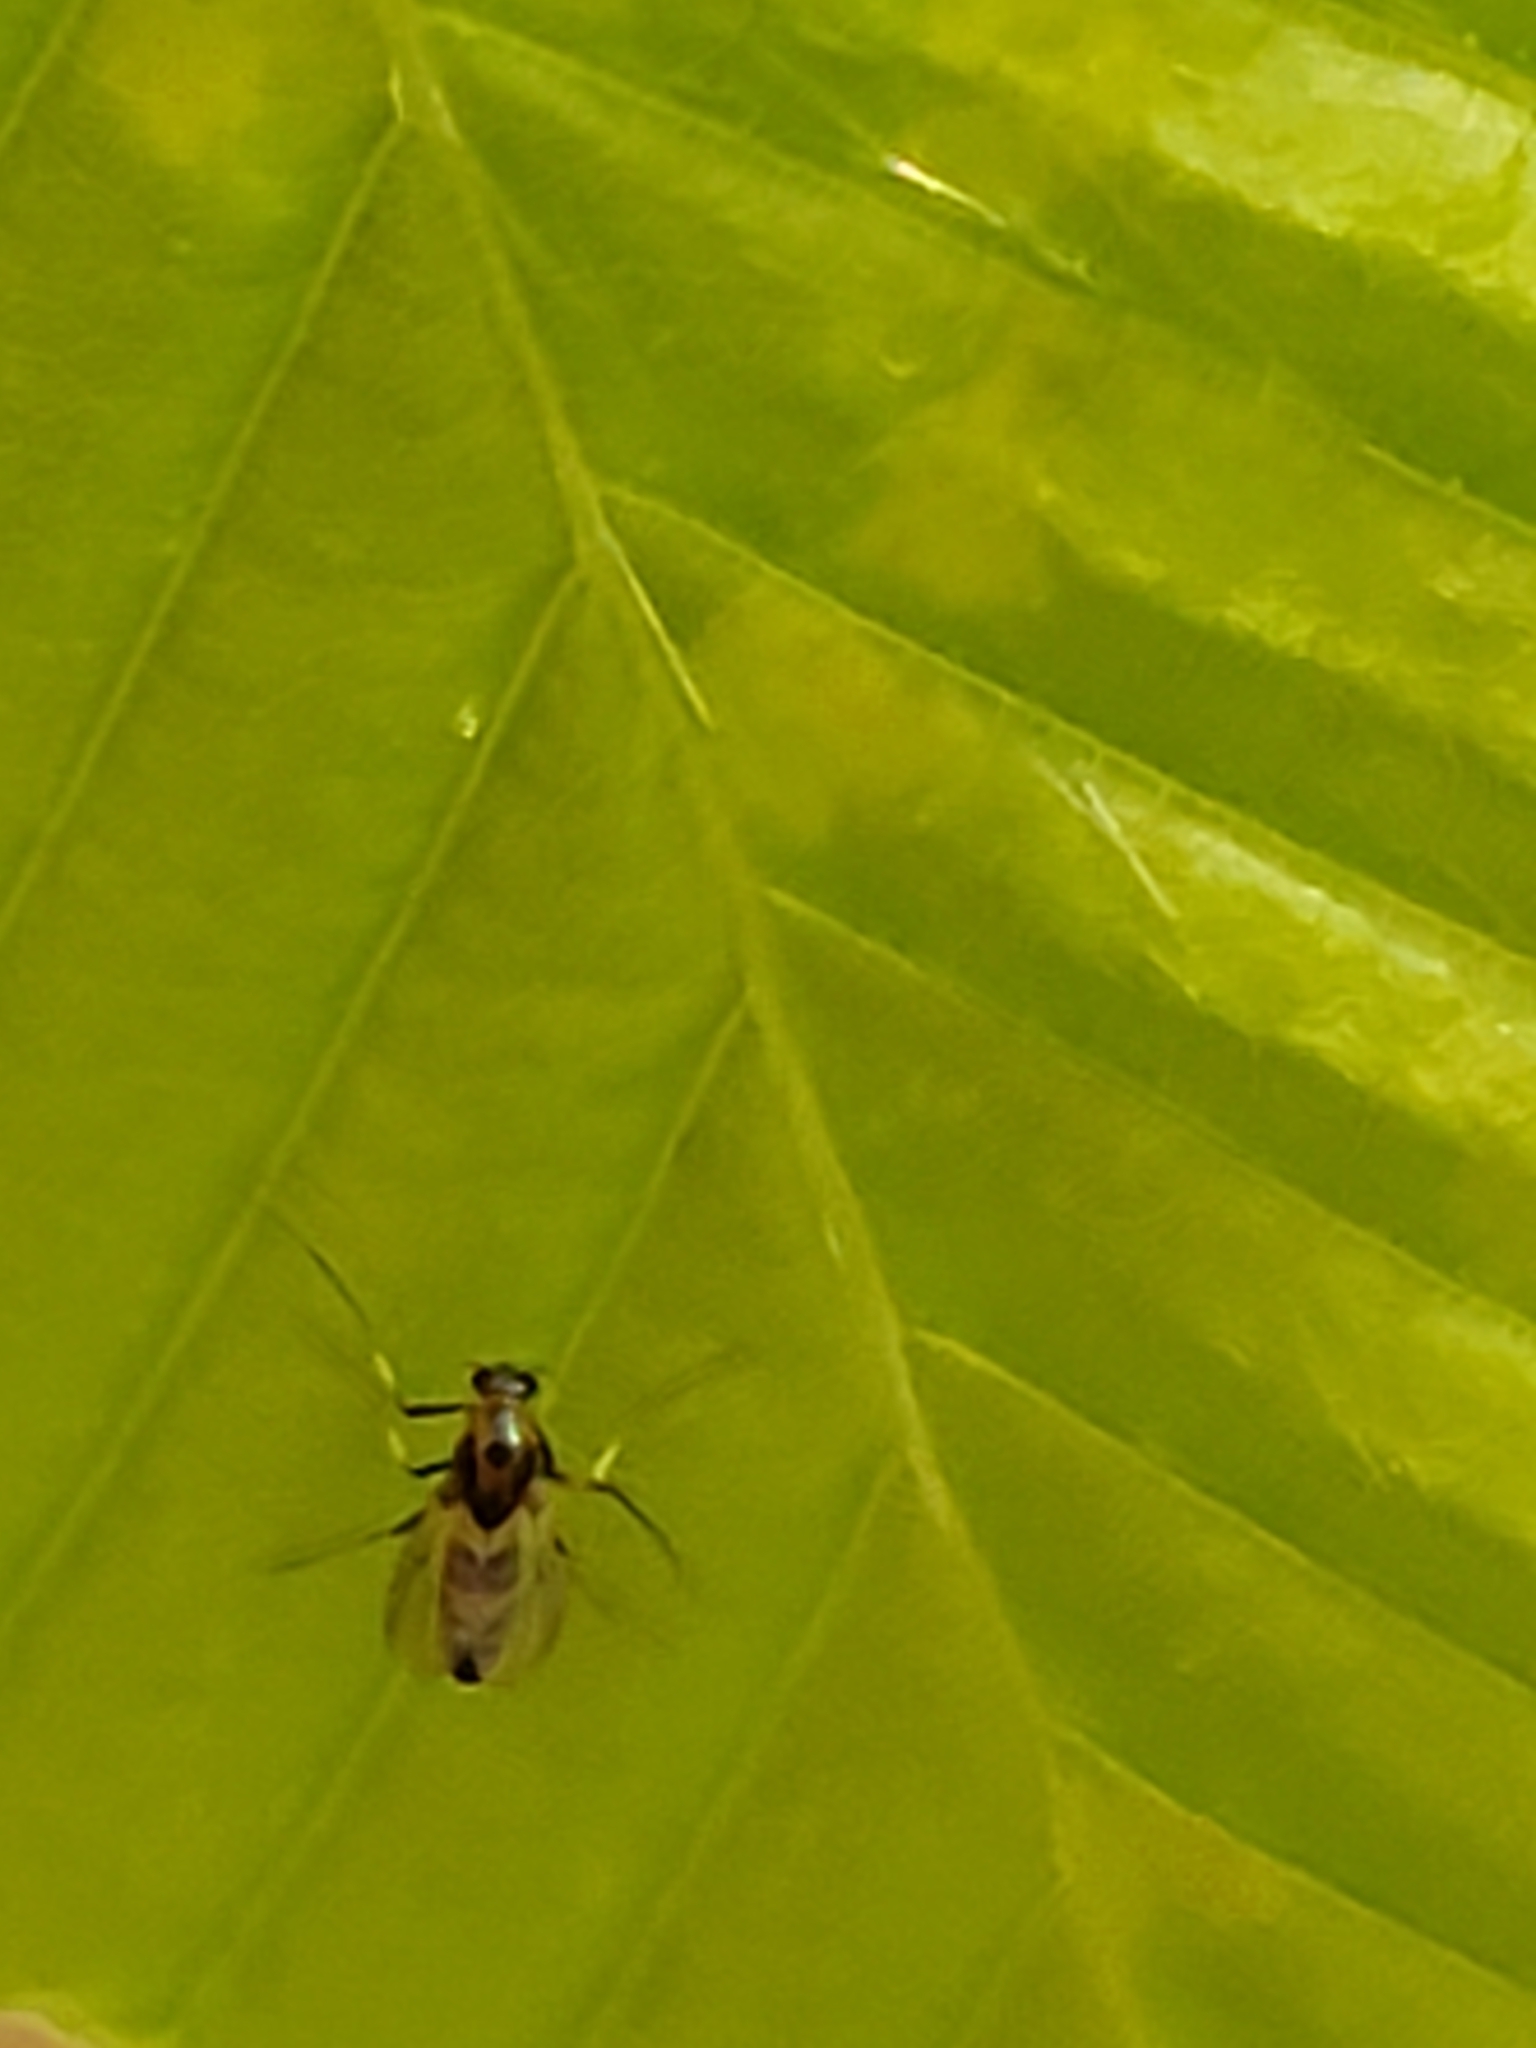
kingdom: Animalia
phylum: Arthropoda
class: Insecta
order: Diptera
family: Chironomidae
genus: Cricotopus
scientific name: Cricotopus
